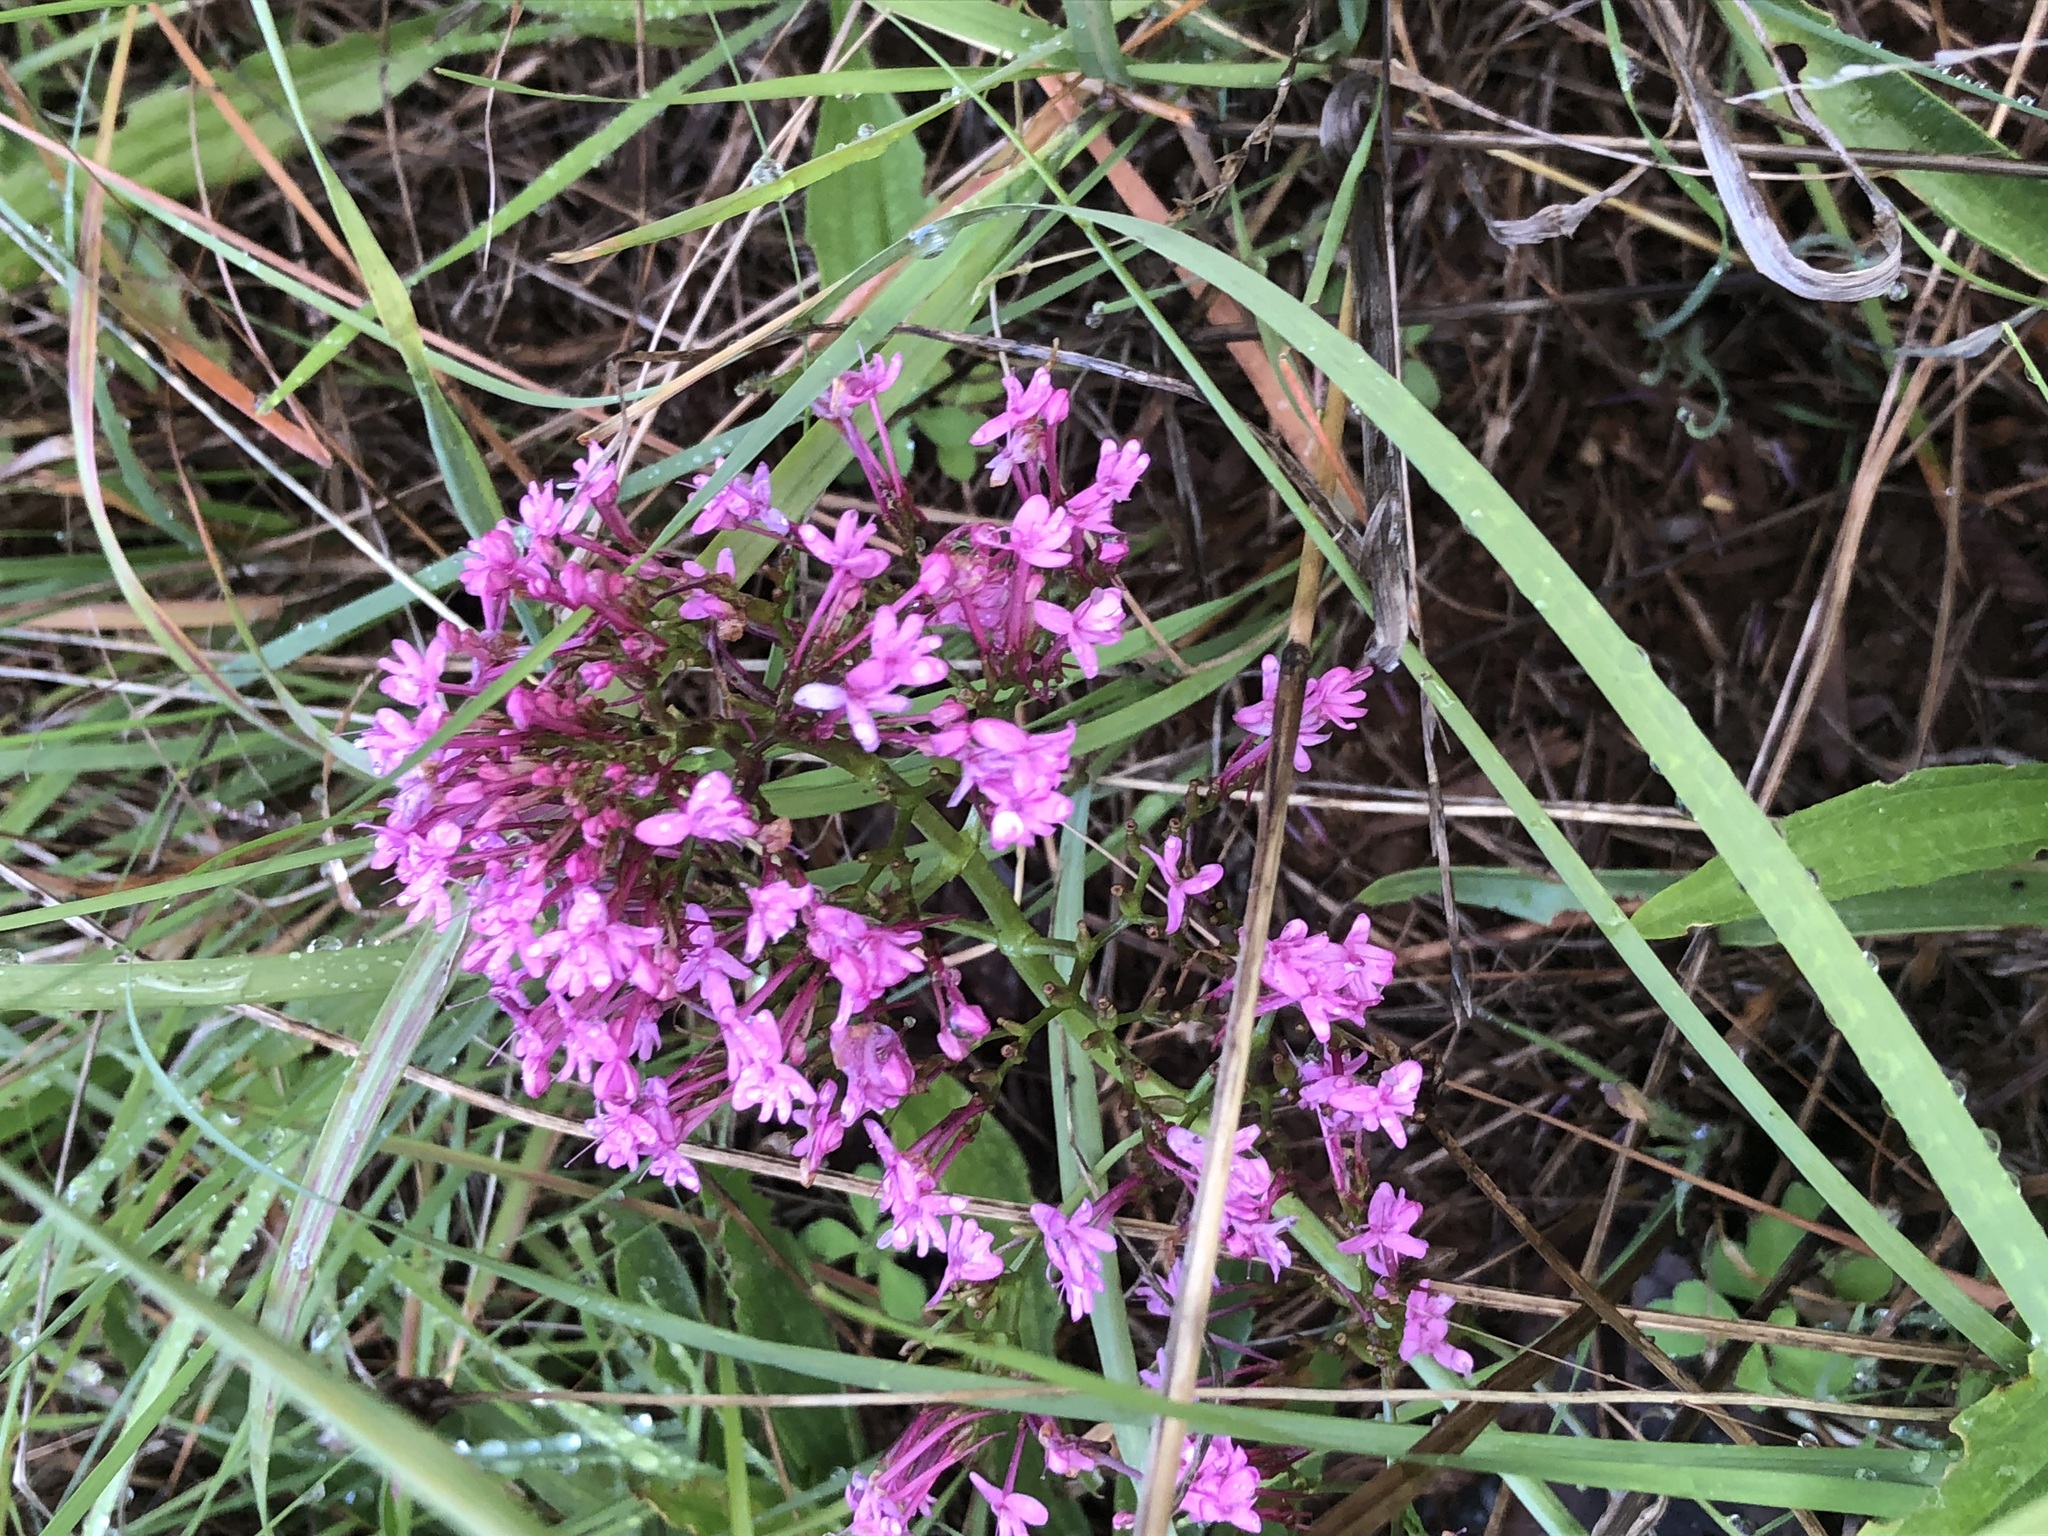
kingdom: Plantae
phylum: Tracheophyta
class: Magnoliopsida
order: Dipsacales
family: Caprifoliaceae
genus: Centranthus
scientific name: Centranthus ruber
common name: Red valerian
